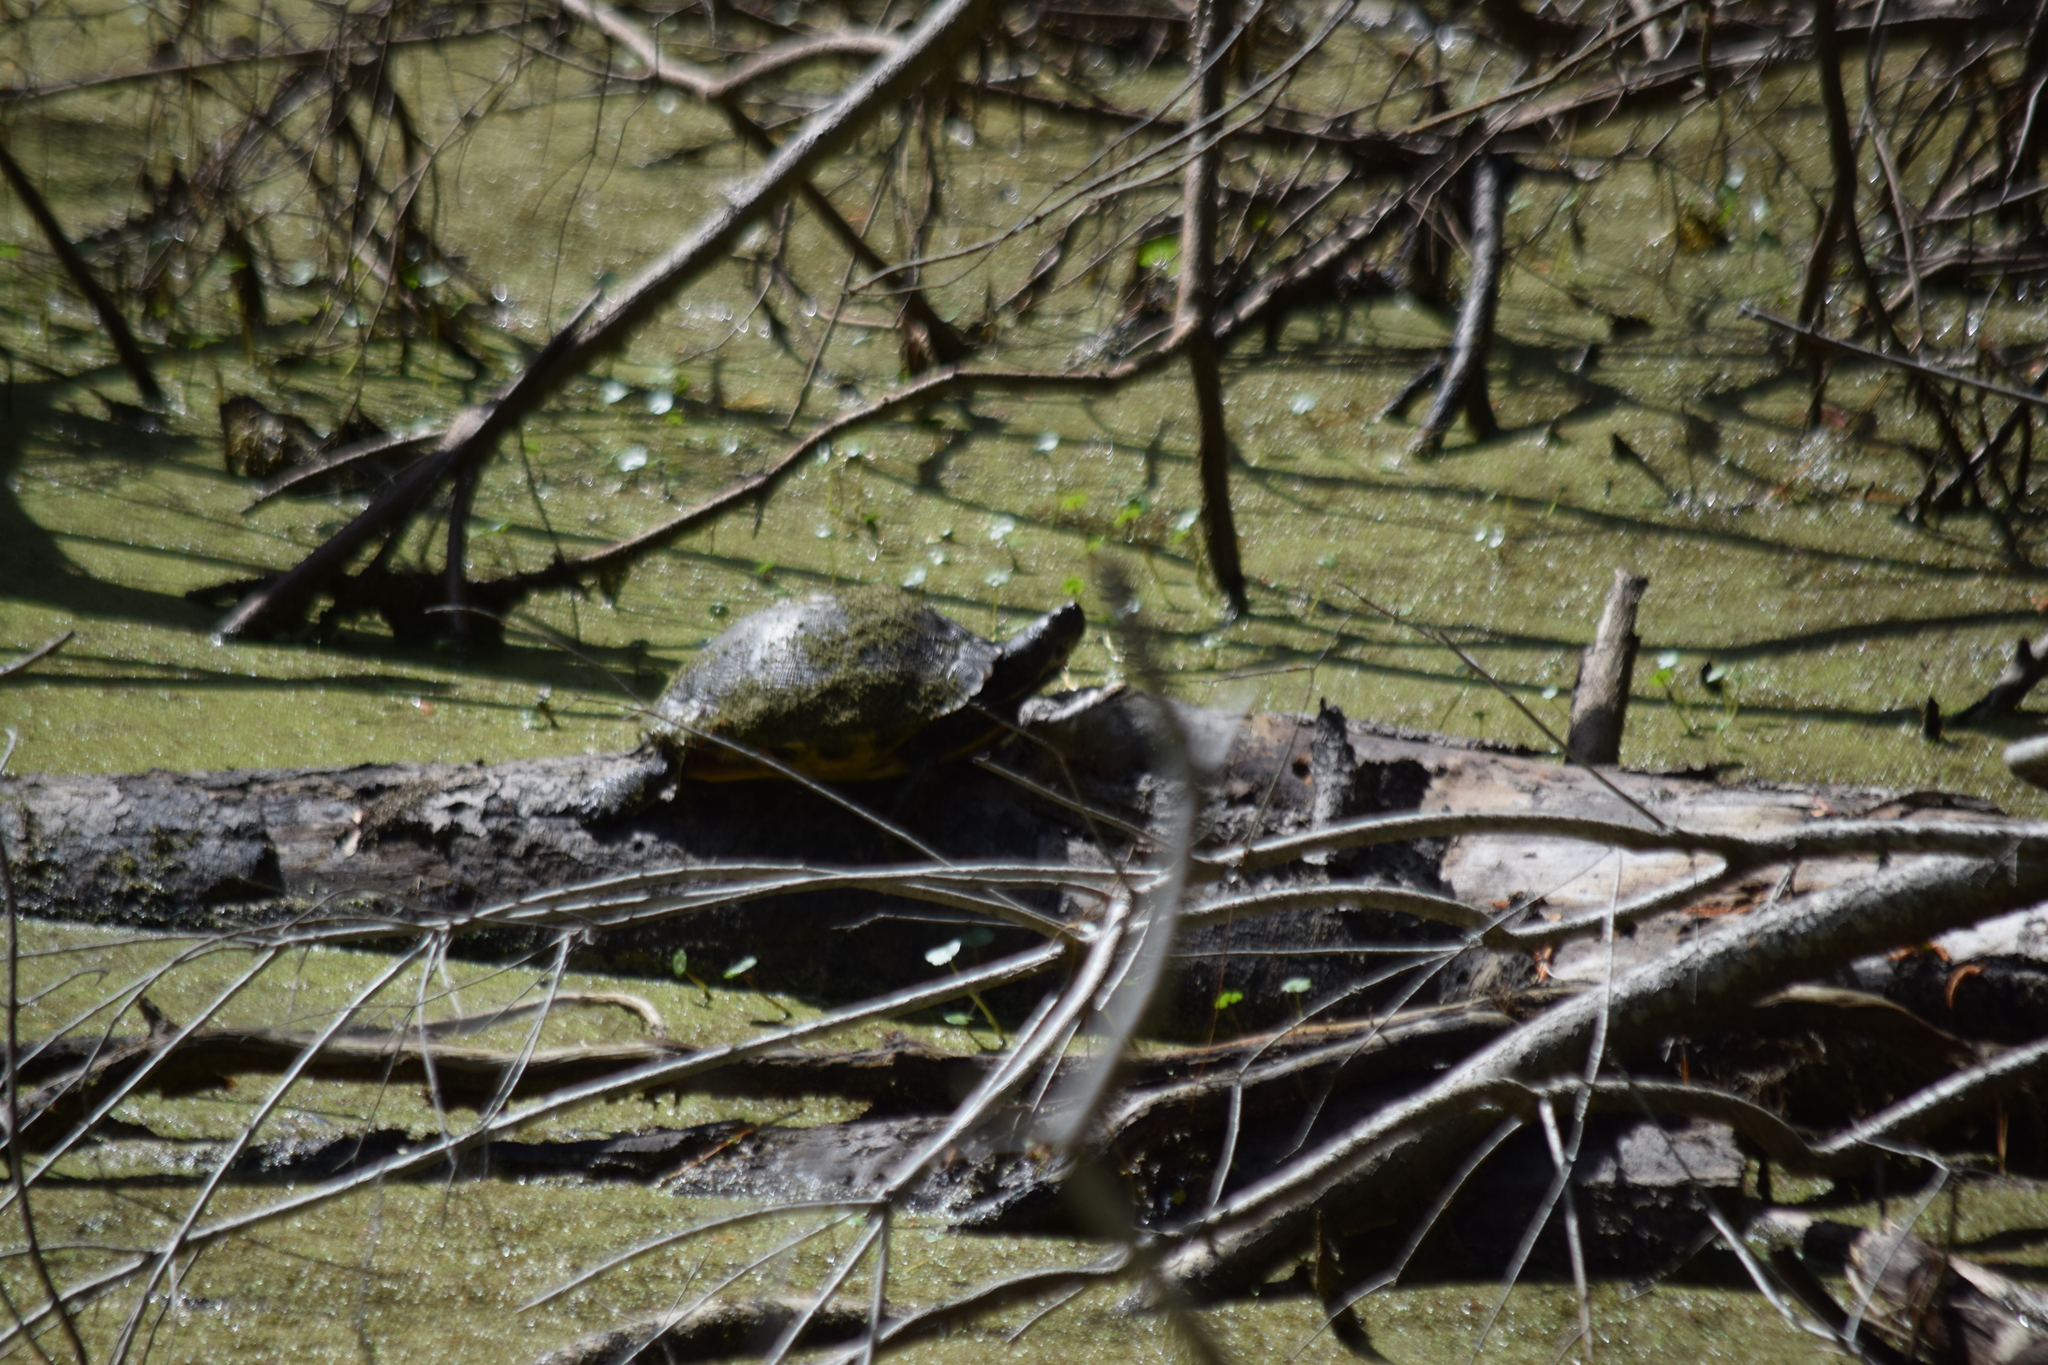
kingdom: Animalia
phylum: Chordata
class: Testudines
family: Emydidae
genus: Trachemys
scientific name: Trachemys scripta
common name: Slider
